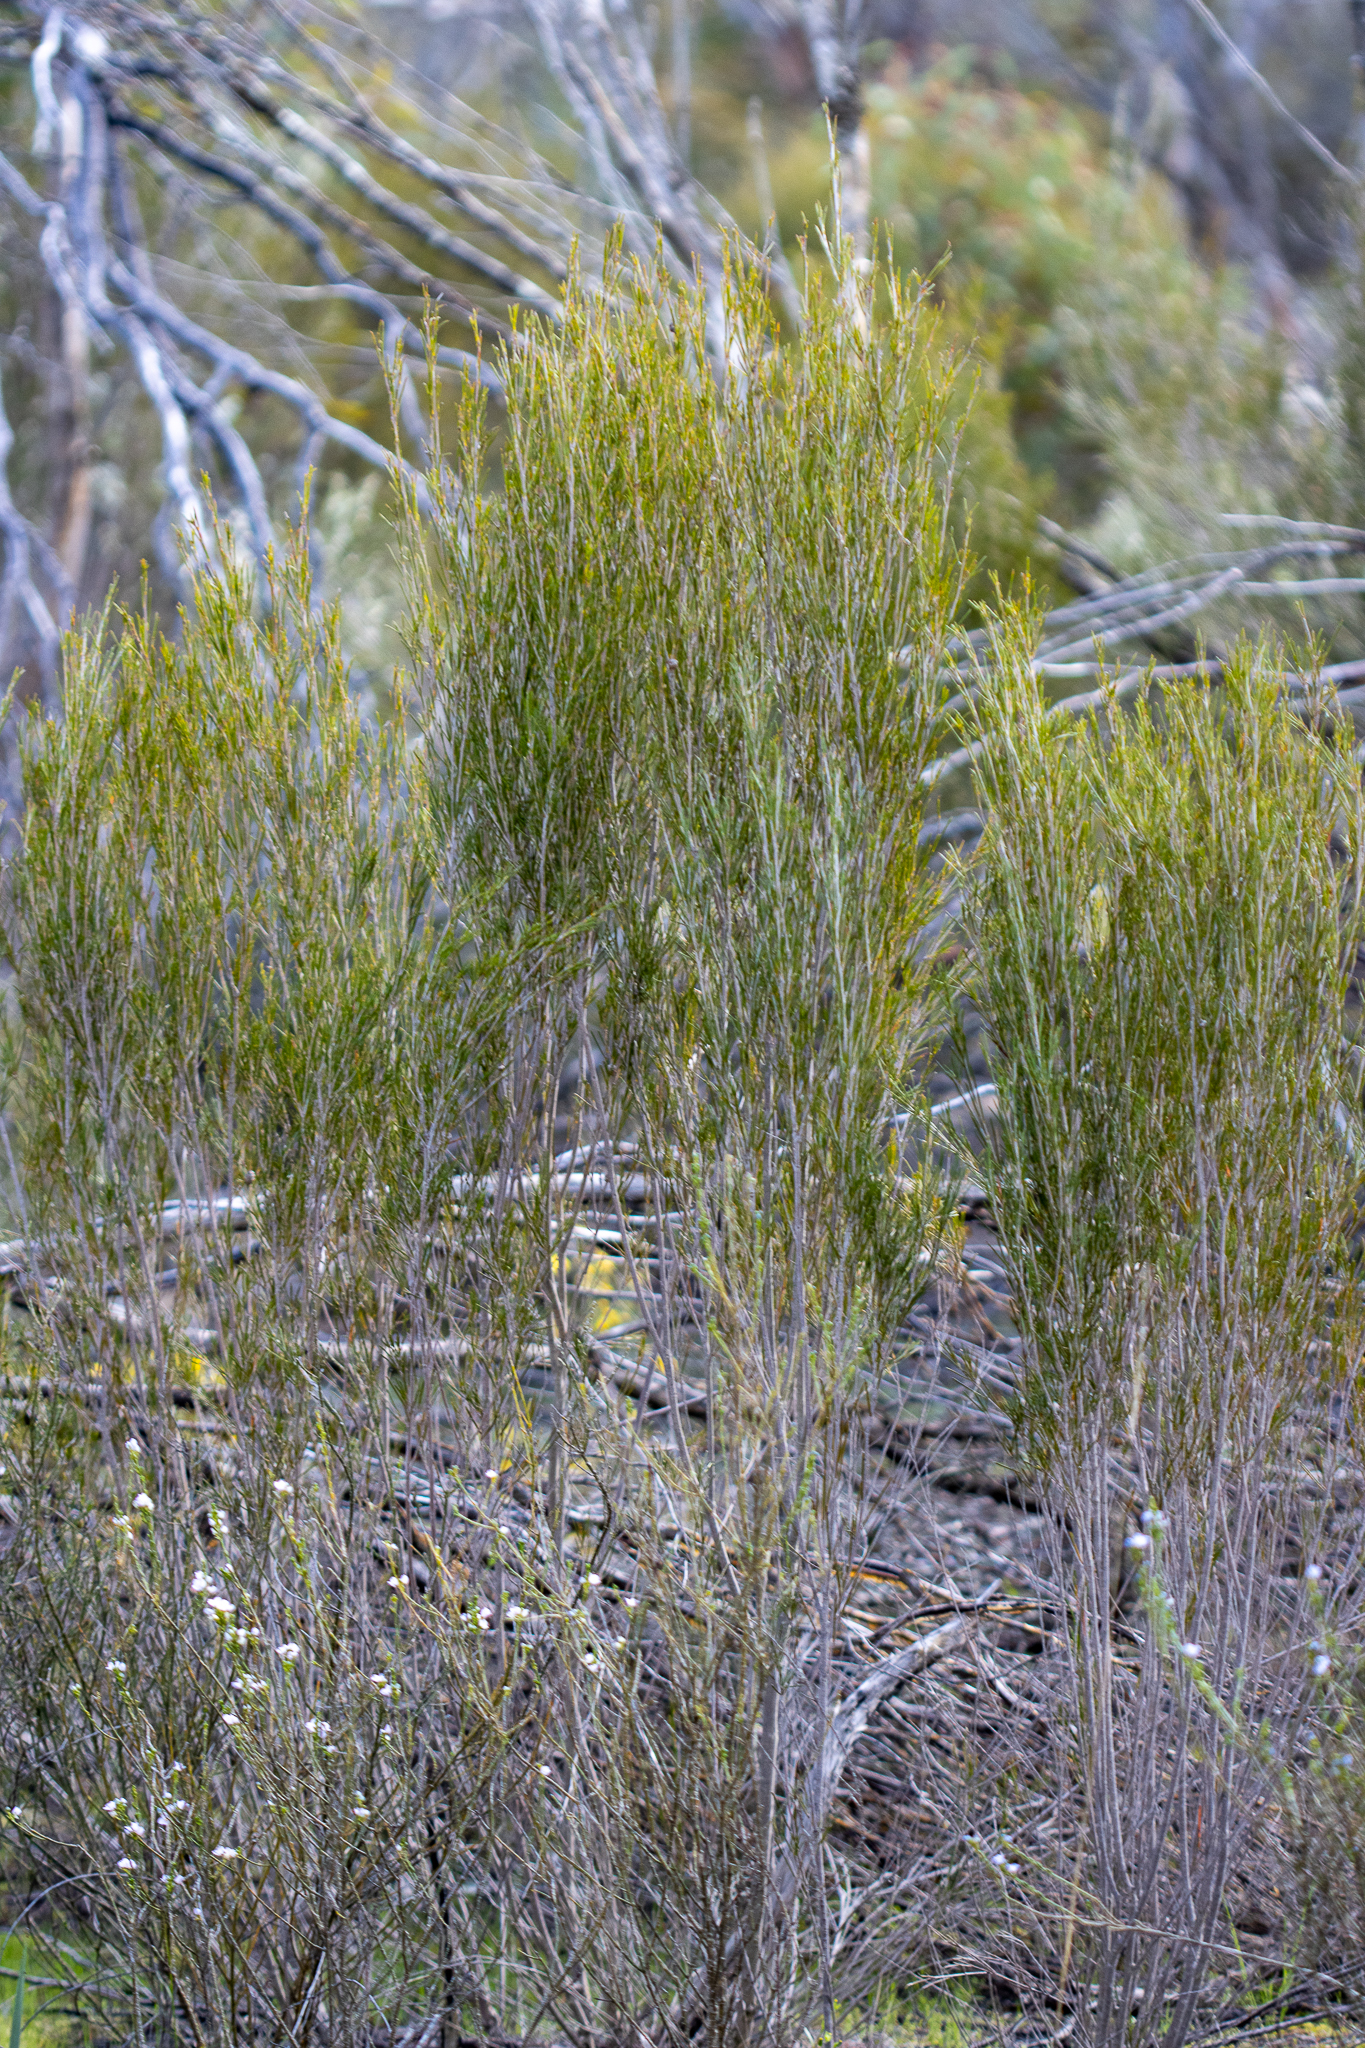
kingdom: Plantae
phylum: Tracheophyta
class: Magnoliopsida
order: Myrtales
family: Myrtaceae
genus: Melaleuca
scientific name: Melaleuca uncinata
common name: Broom honey myrtle
